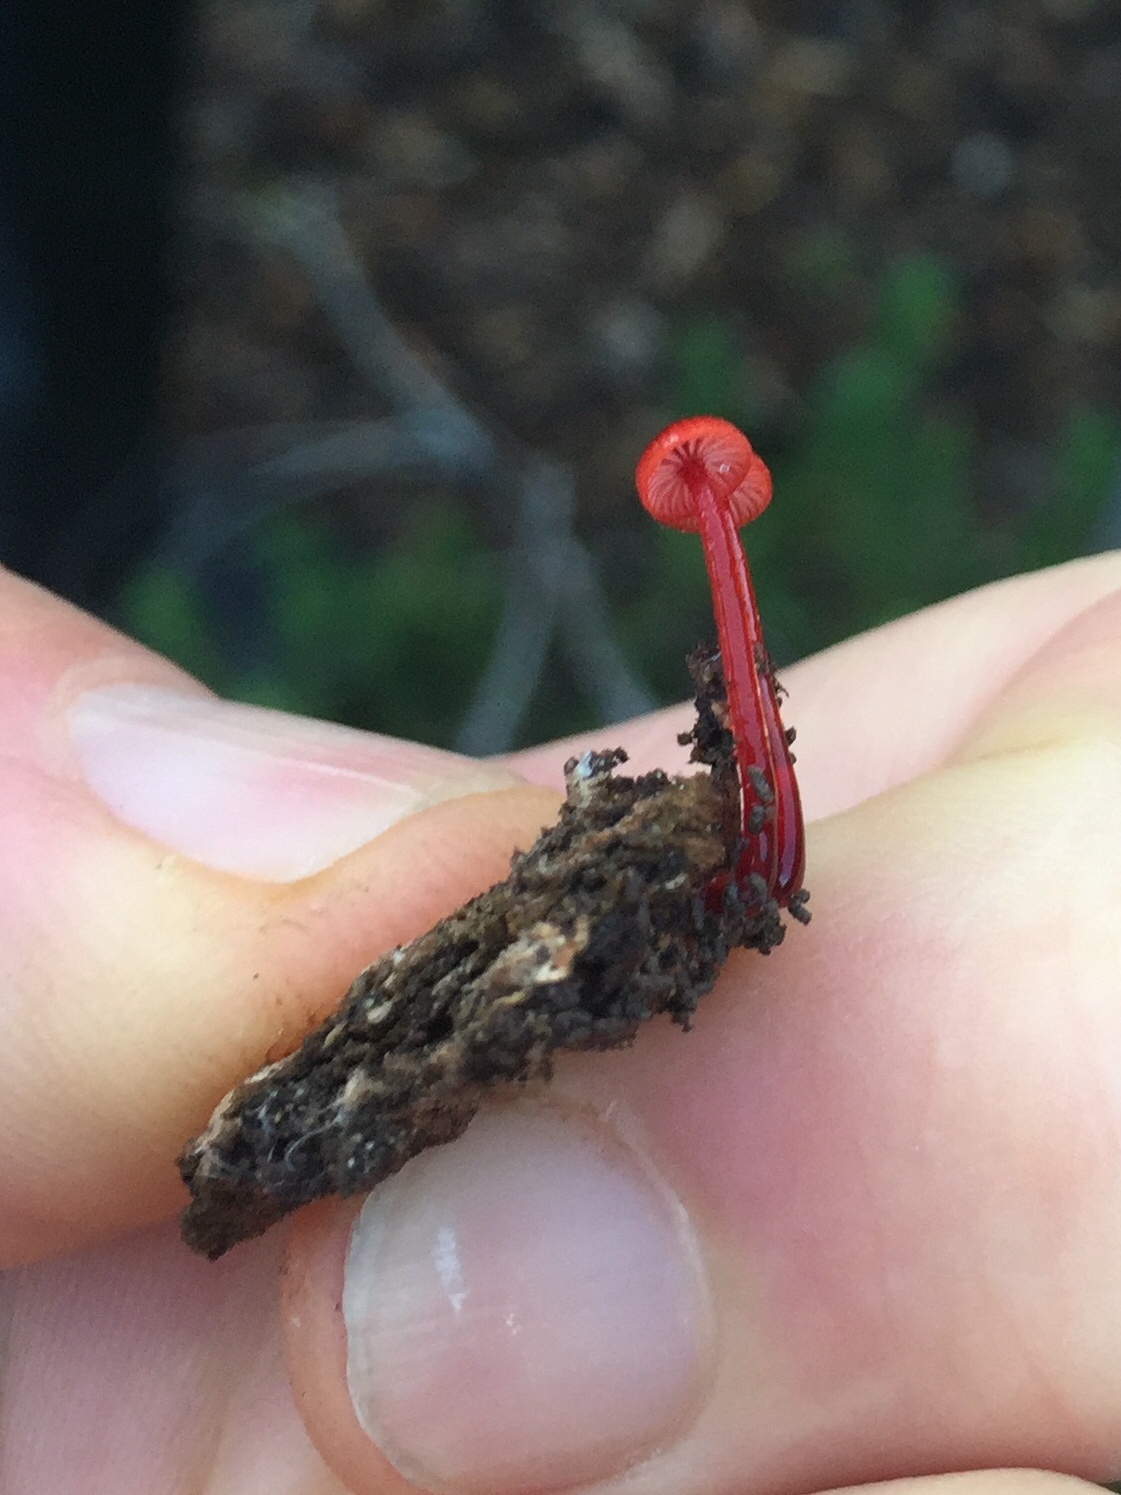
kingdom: Fungi
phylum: Basidiomycota
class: Agaricomycetes
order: Agaricales
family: Mycenaceae
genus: Cruentomycena
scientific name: Cruentomycena viscidocruenta
